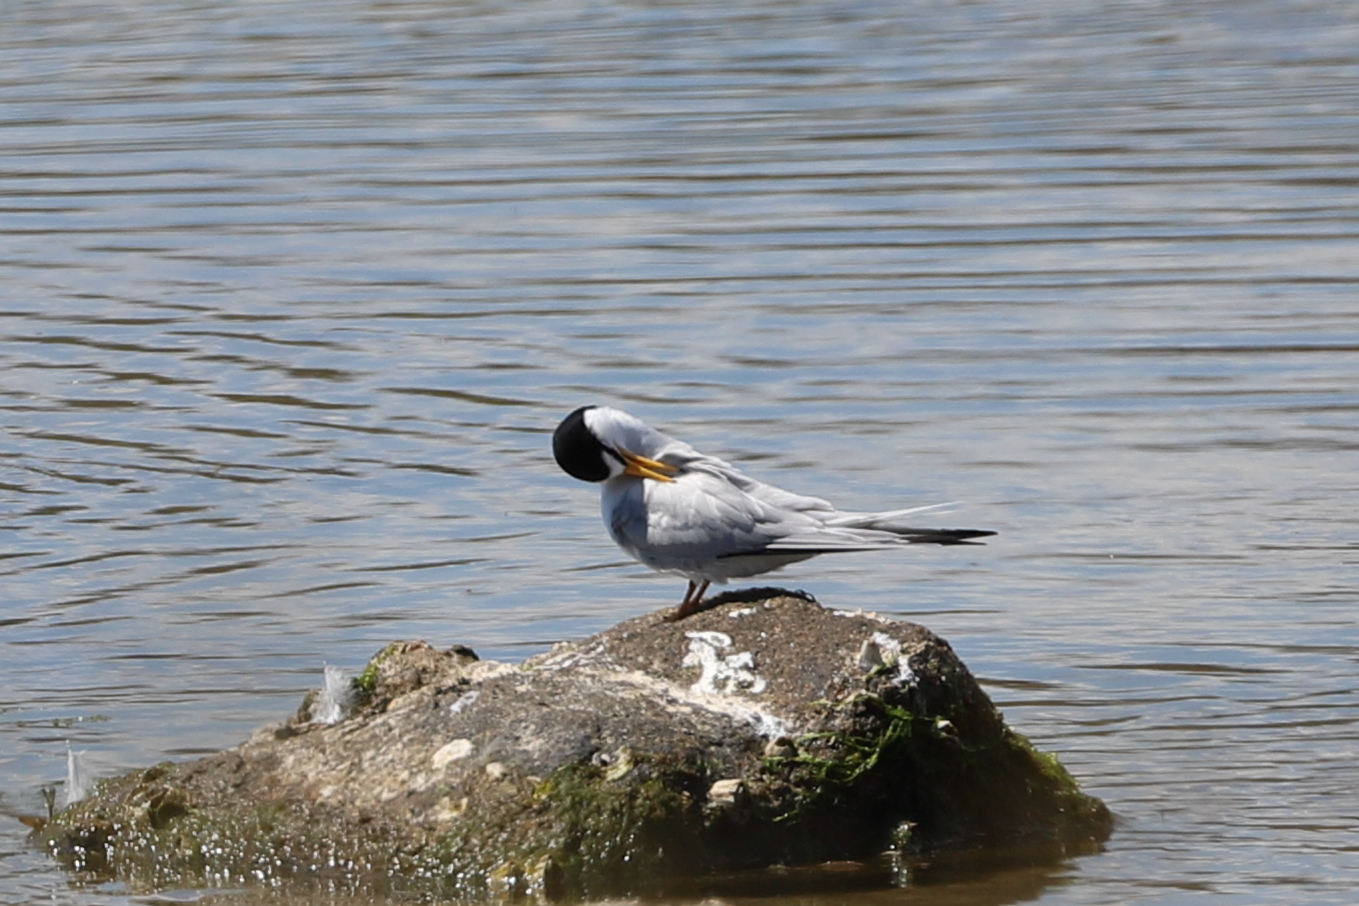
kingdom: Animalia
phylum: Chordata
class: Aves
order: Charadriiformes
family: Laridae
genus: Sternula
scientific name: Sternula antillarum
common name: Least tern
